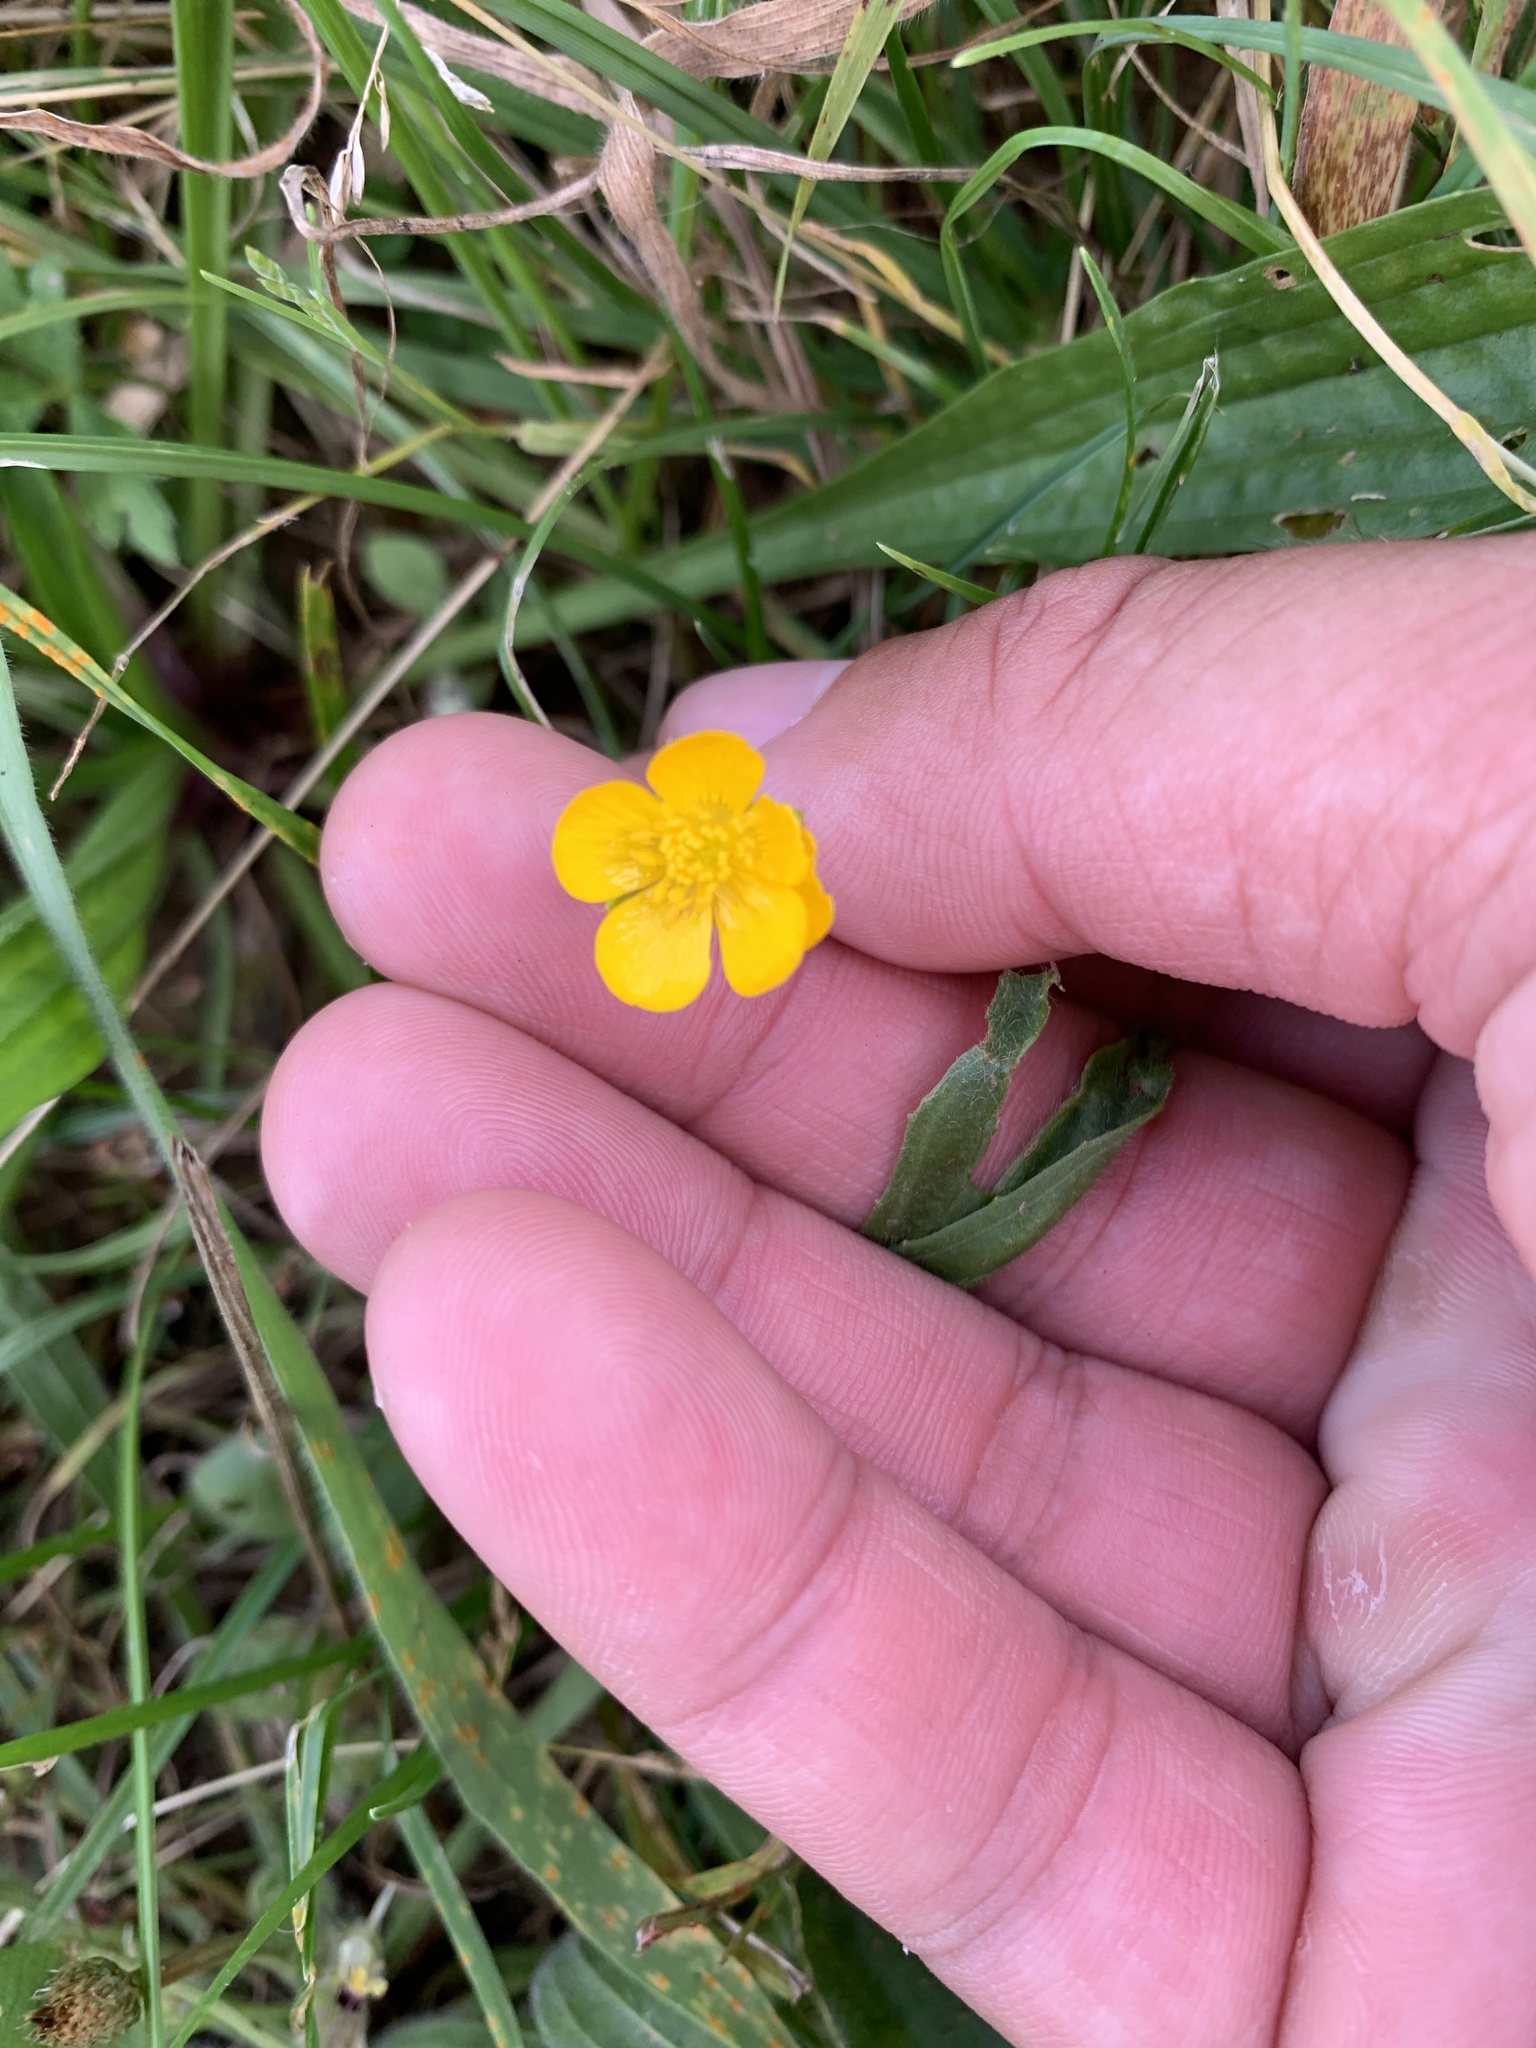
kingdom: Plantae
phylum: Tracheophyta
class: Magnoliopsida
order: Ranunculales
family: Ranunculaceae
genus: Ranunculus
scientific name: Ranunculus acris
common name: Meadow buttercup
